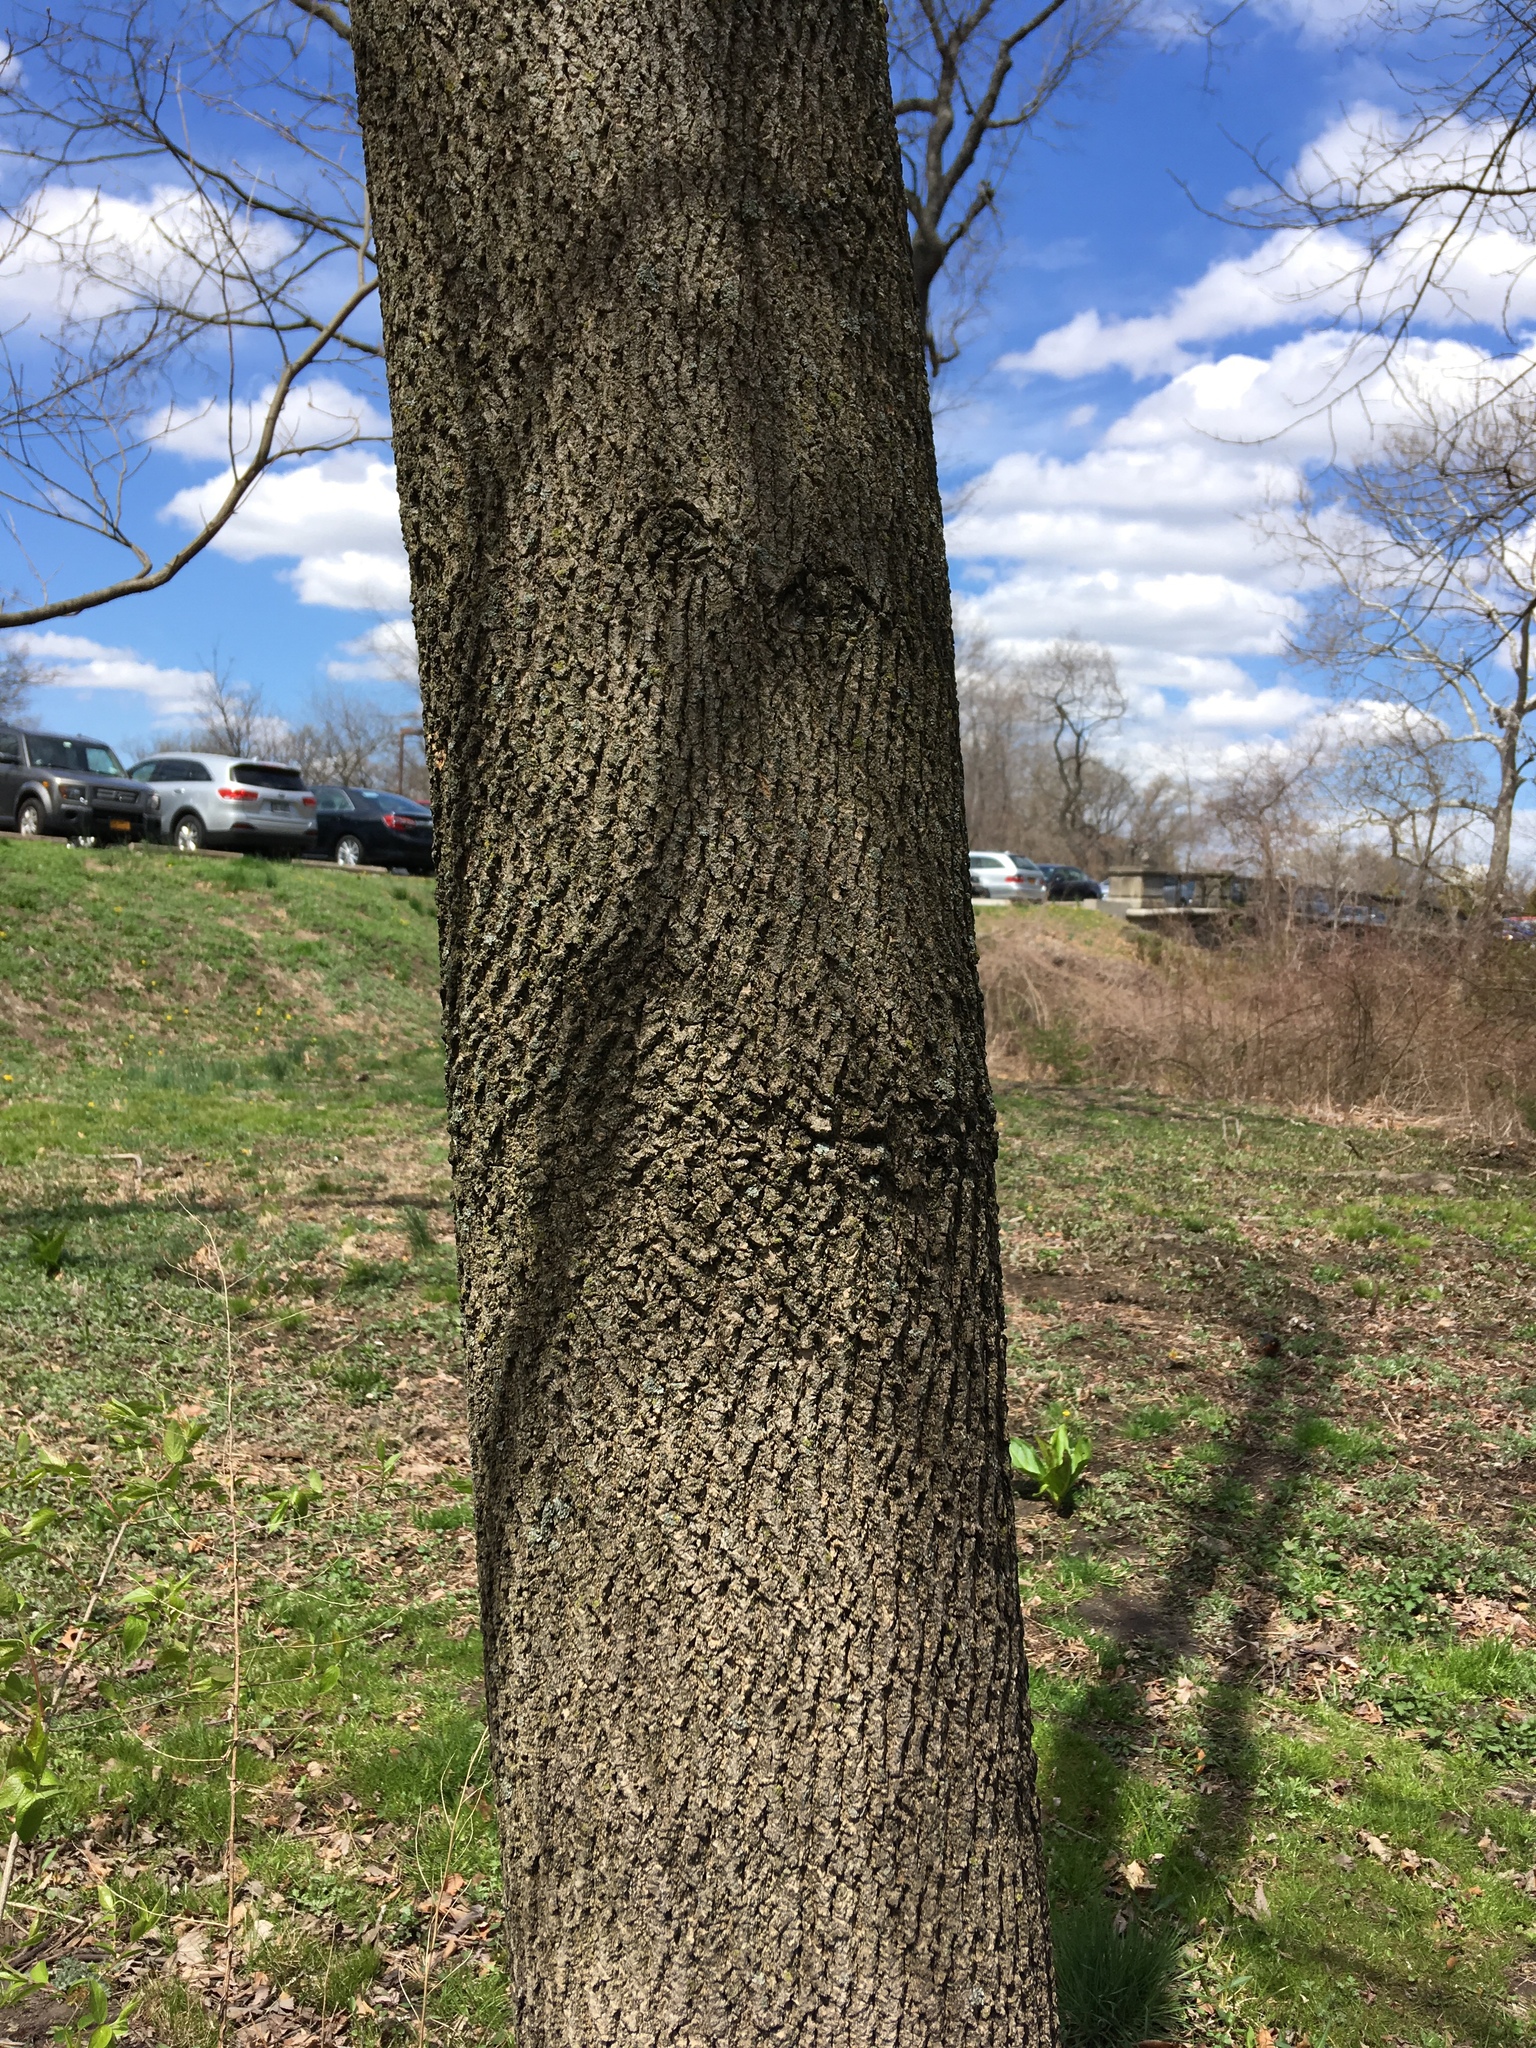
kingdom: Plantae
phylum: Tracheophyta
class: Magnoliopsida
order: Lamiales
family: Oleaceae
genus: Fraxinus
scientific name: Fraxinus pennsylvanica
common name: Green ash
